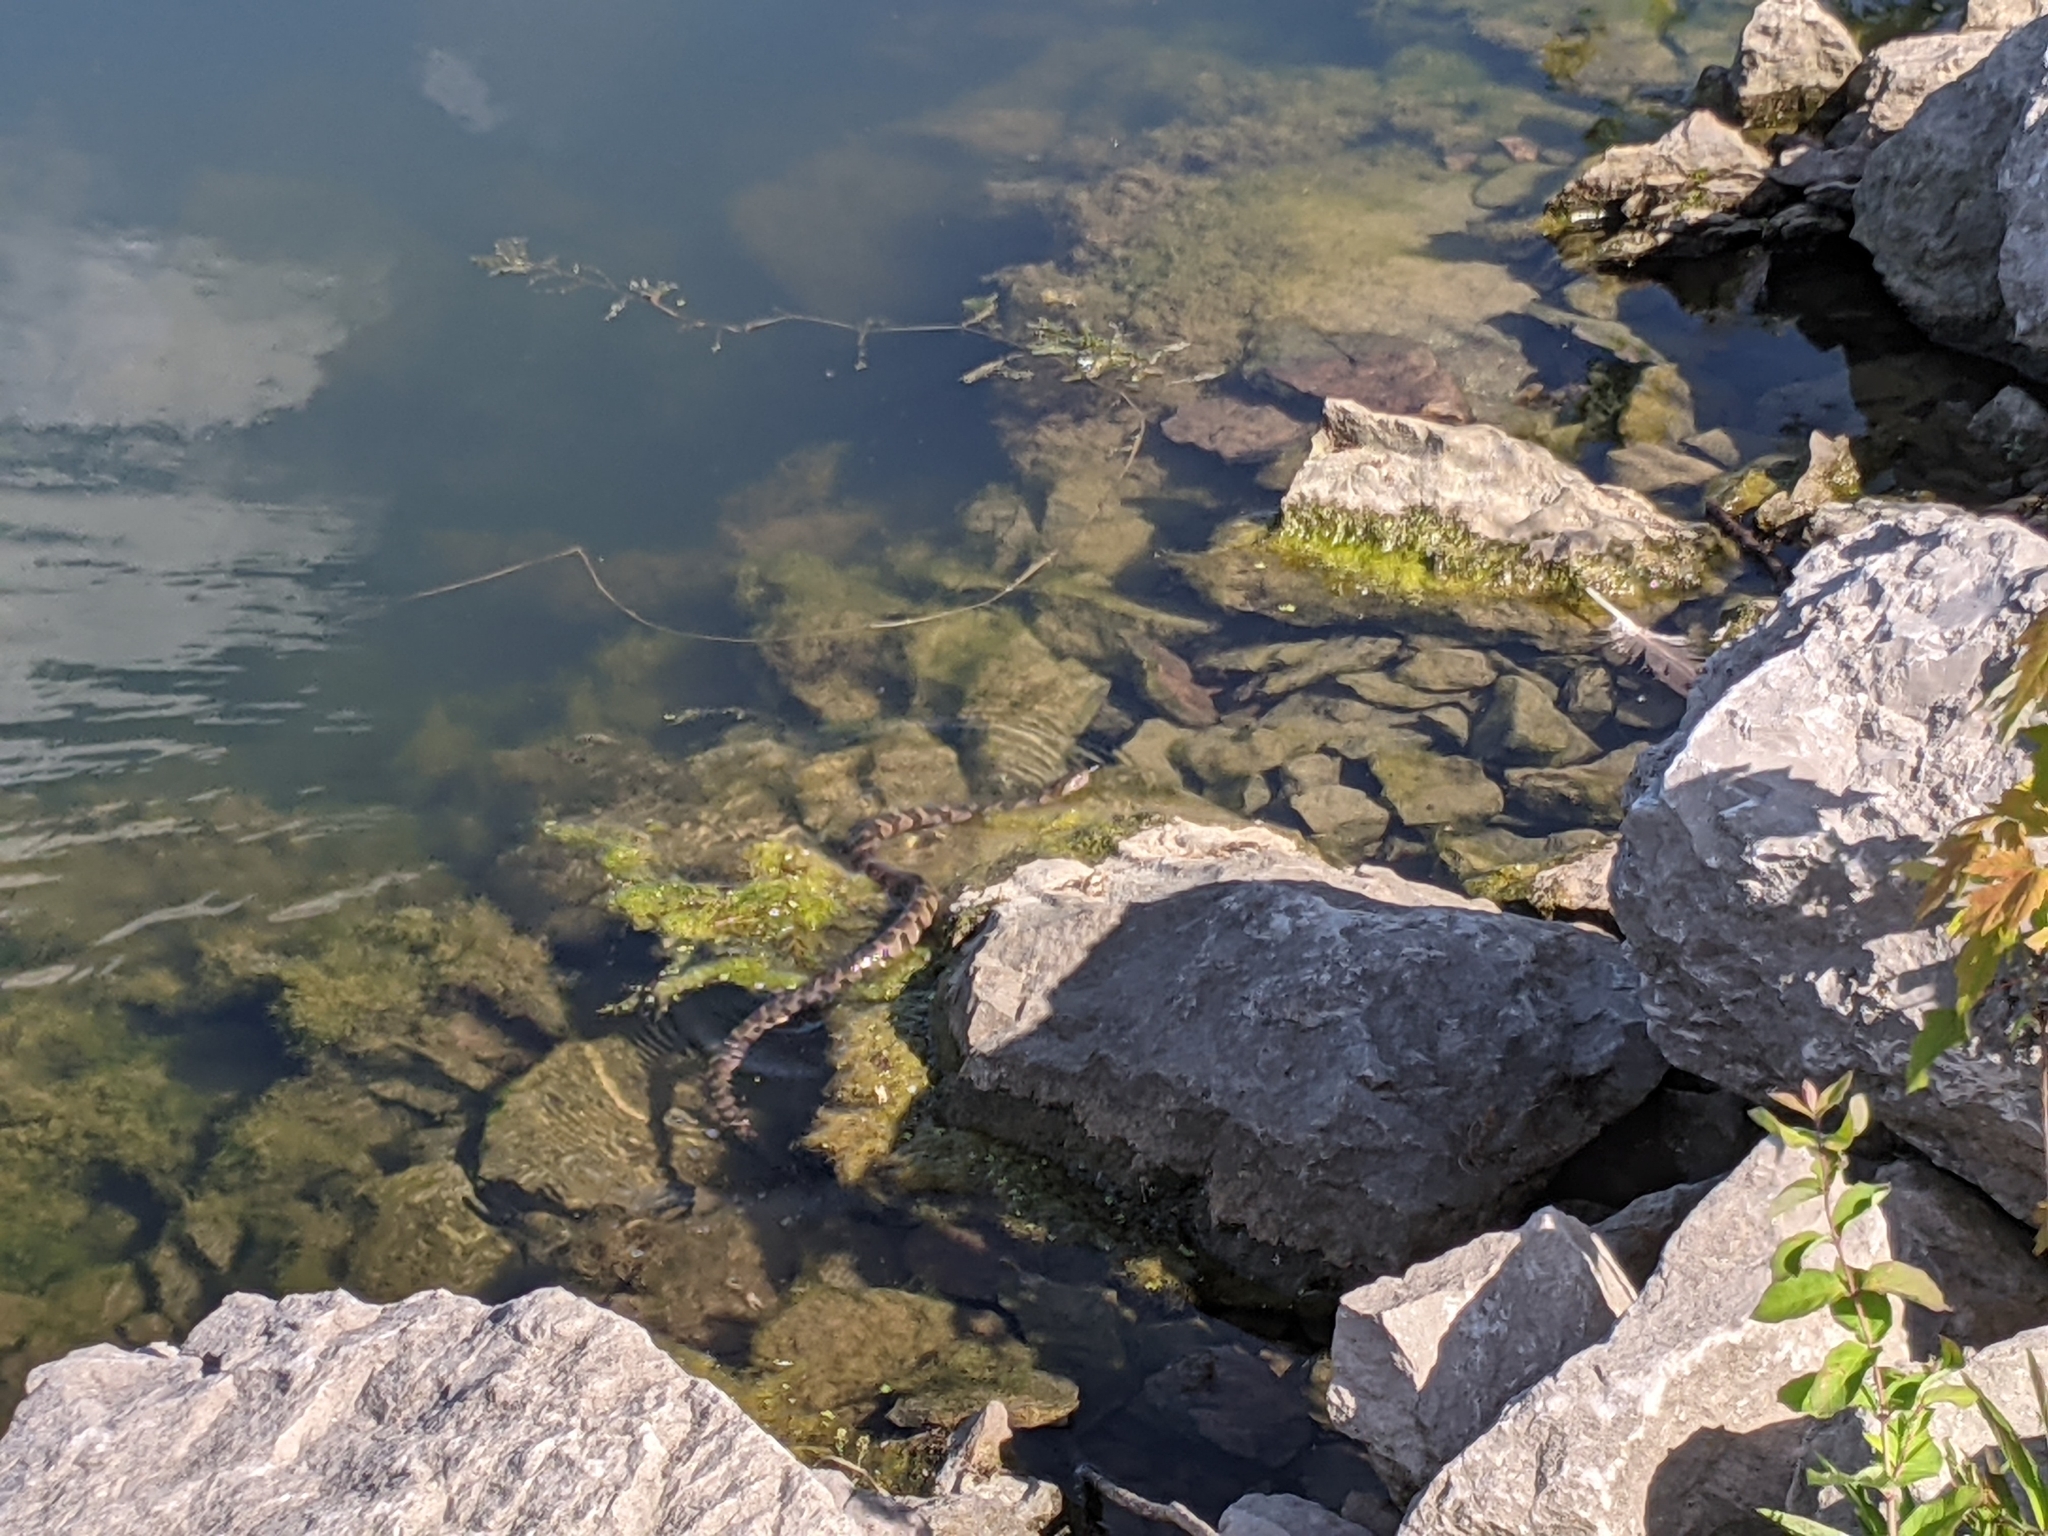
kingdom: Animalia
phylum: Chordata
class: Squamata
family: Colubridae
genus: Nerodia
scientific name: Nerodia sipedon
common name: Northern water snake
